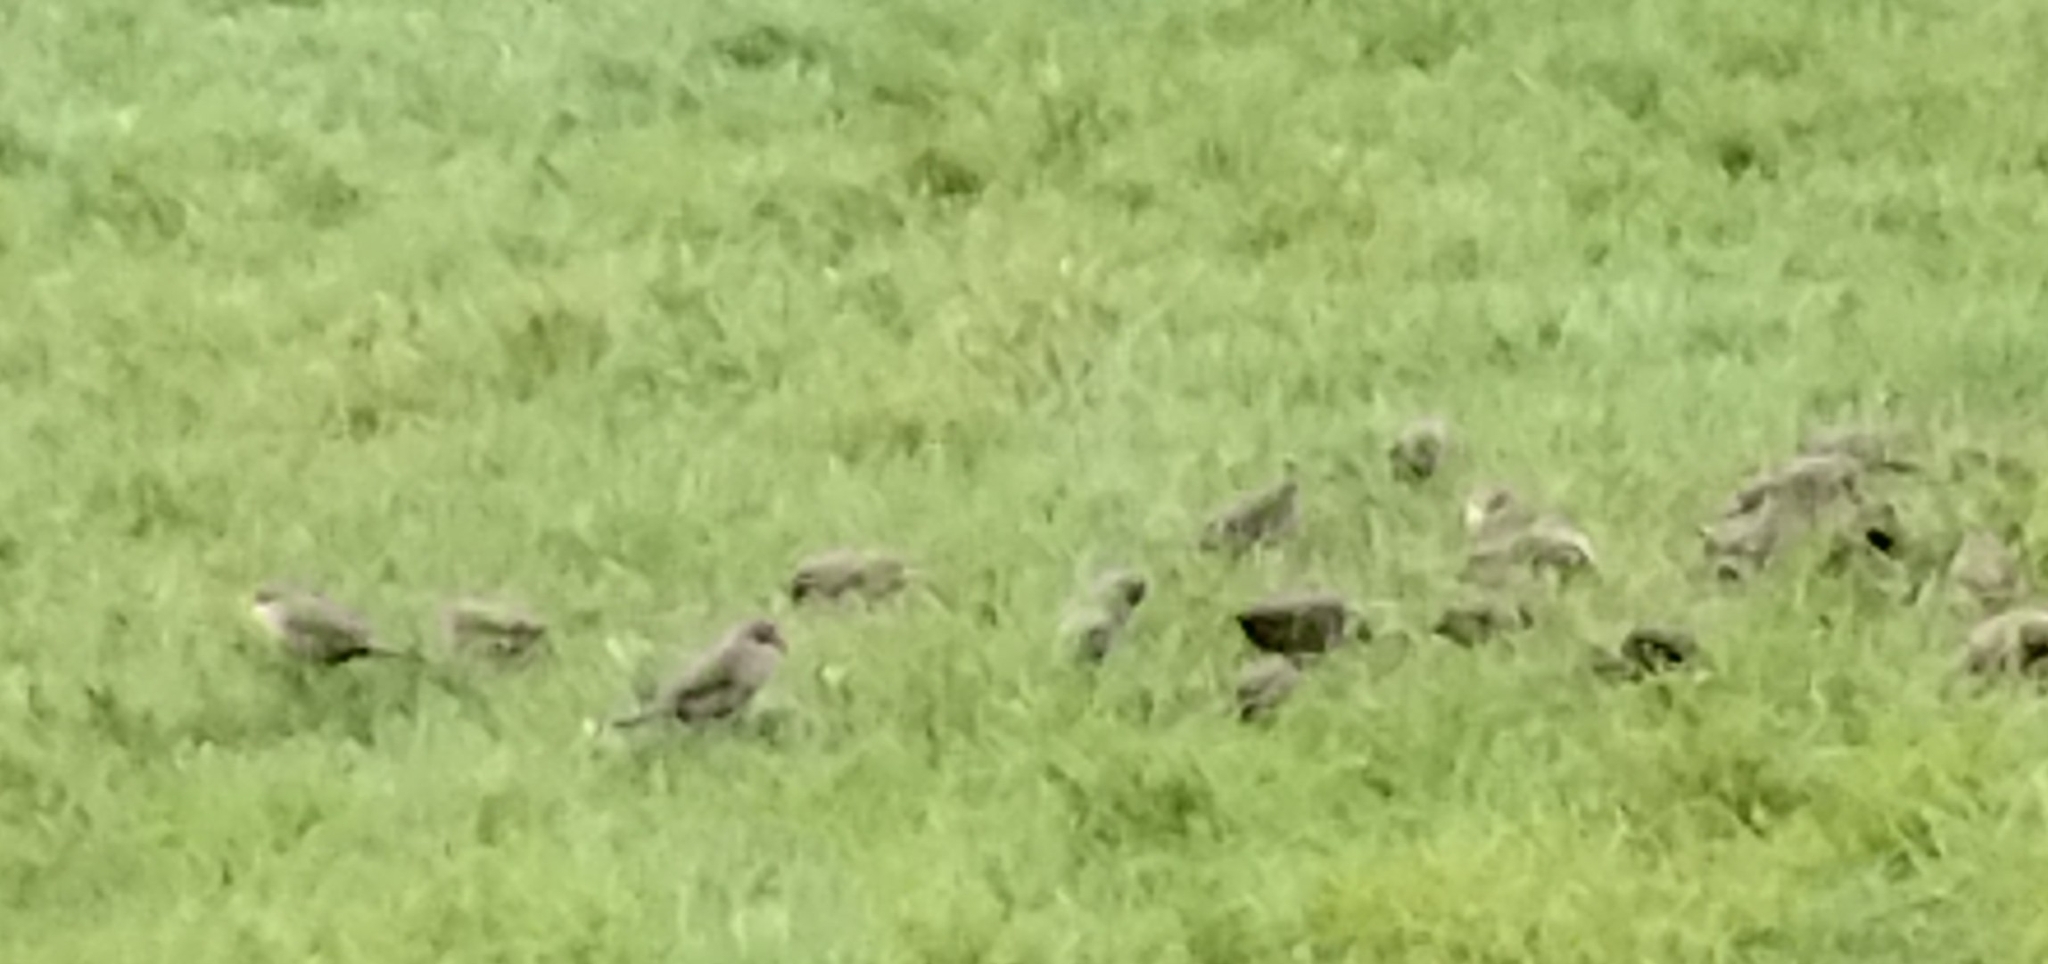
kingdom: Animalia
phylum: Chordata
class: Aves
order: Passeriformes
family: Estrildidae
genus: Estrilda
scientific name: Estrilda astrild
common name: Common waxbill
